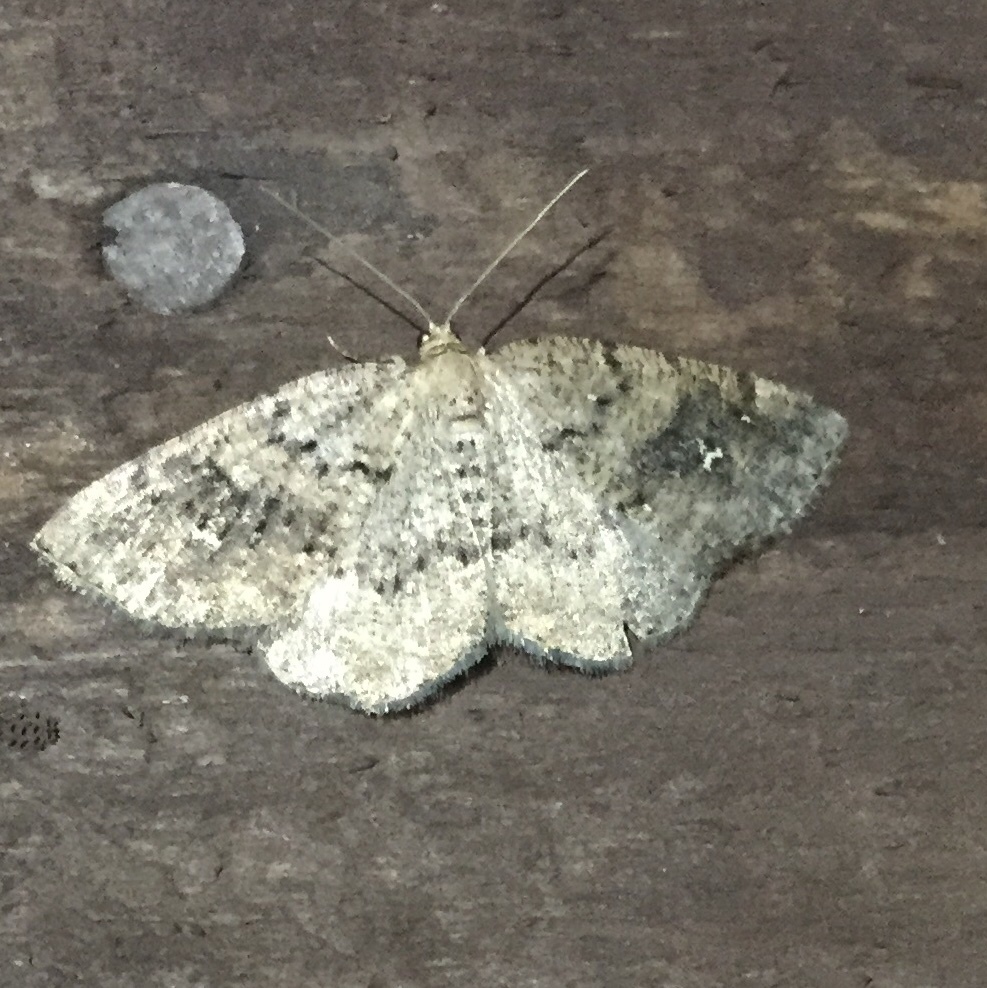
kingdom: Animalia
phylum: Arthropoda
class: Insecta
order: Lepidoptera
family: Geometridae
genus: Homochlodes
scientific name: Homochlodes fritillaria
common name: Pale homochlodes
